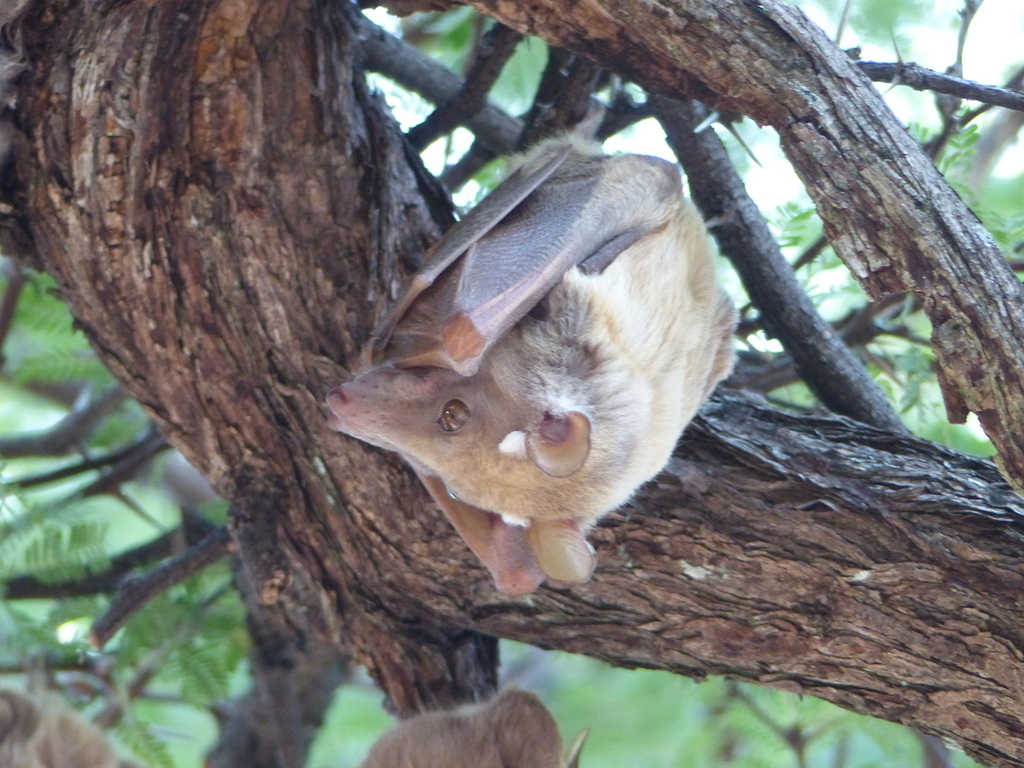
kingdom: Animalia
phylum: Chordata
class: Mammalia
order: Chiroptera
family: Pteropodidae
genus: Epomophorus
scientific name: Epomophorus crypturus
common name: Smaller epauletted fruit bat
